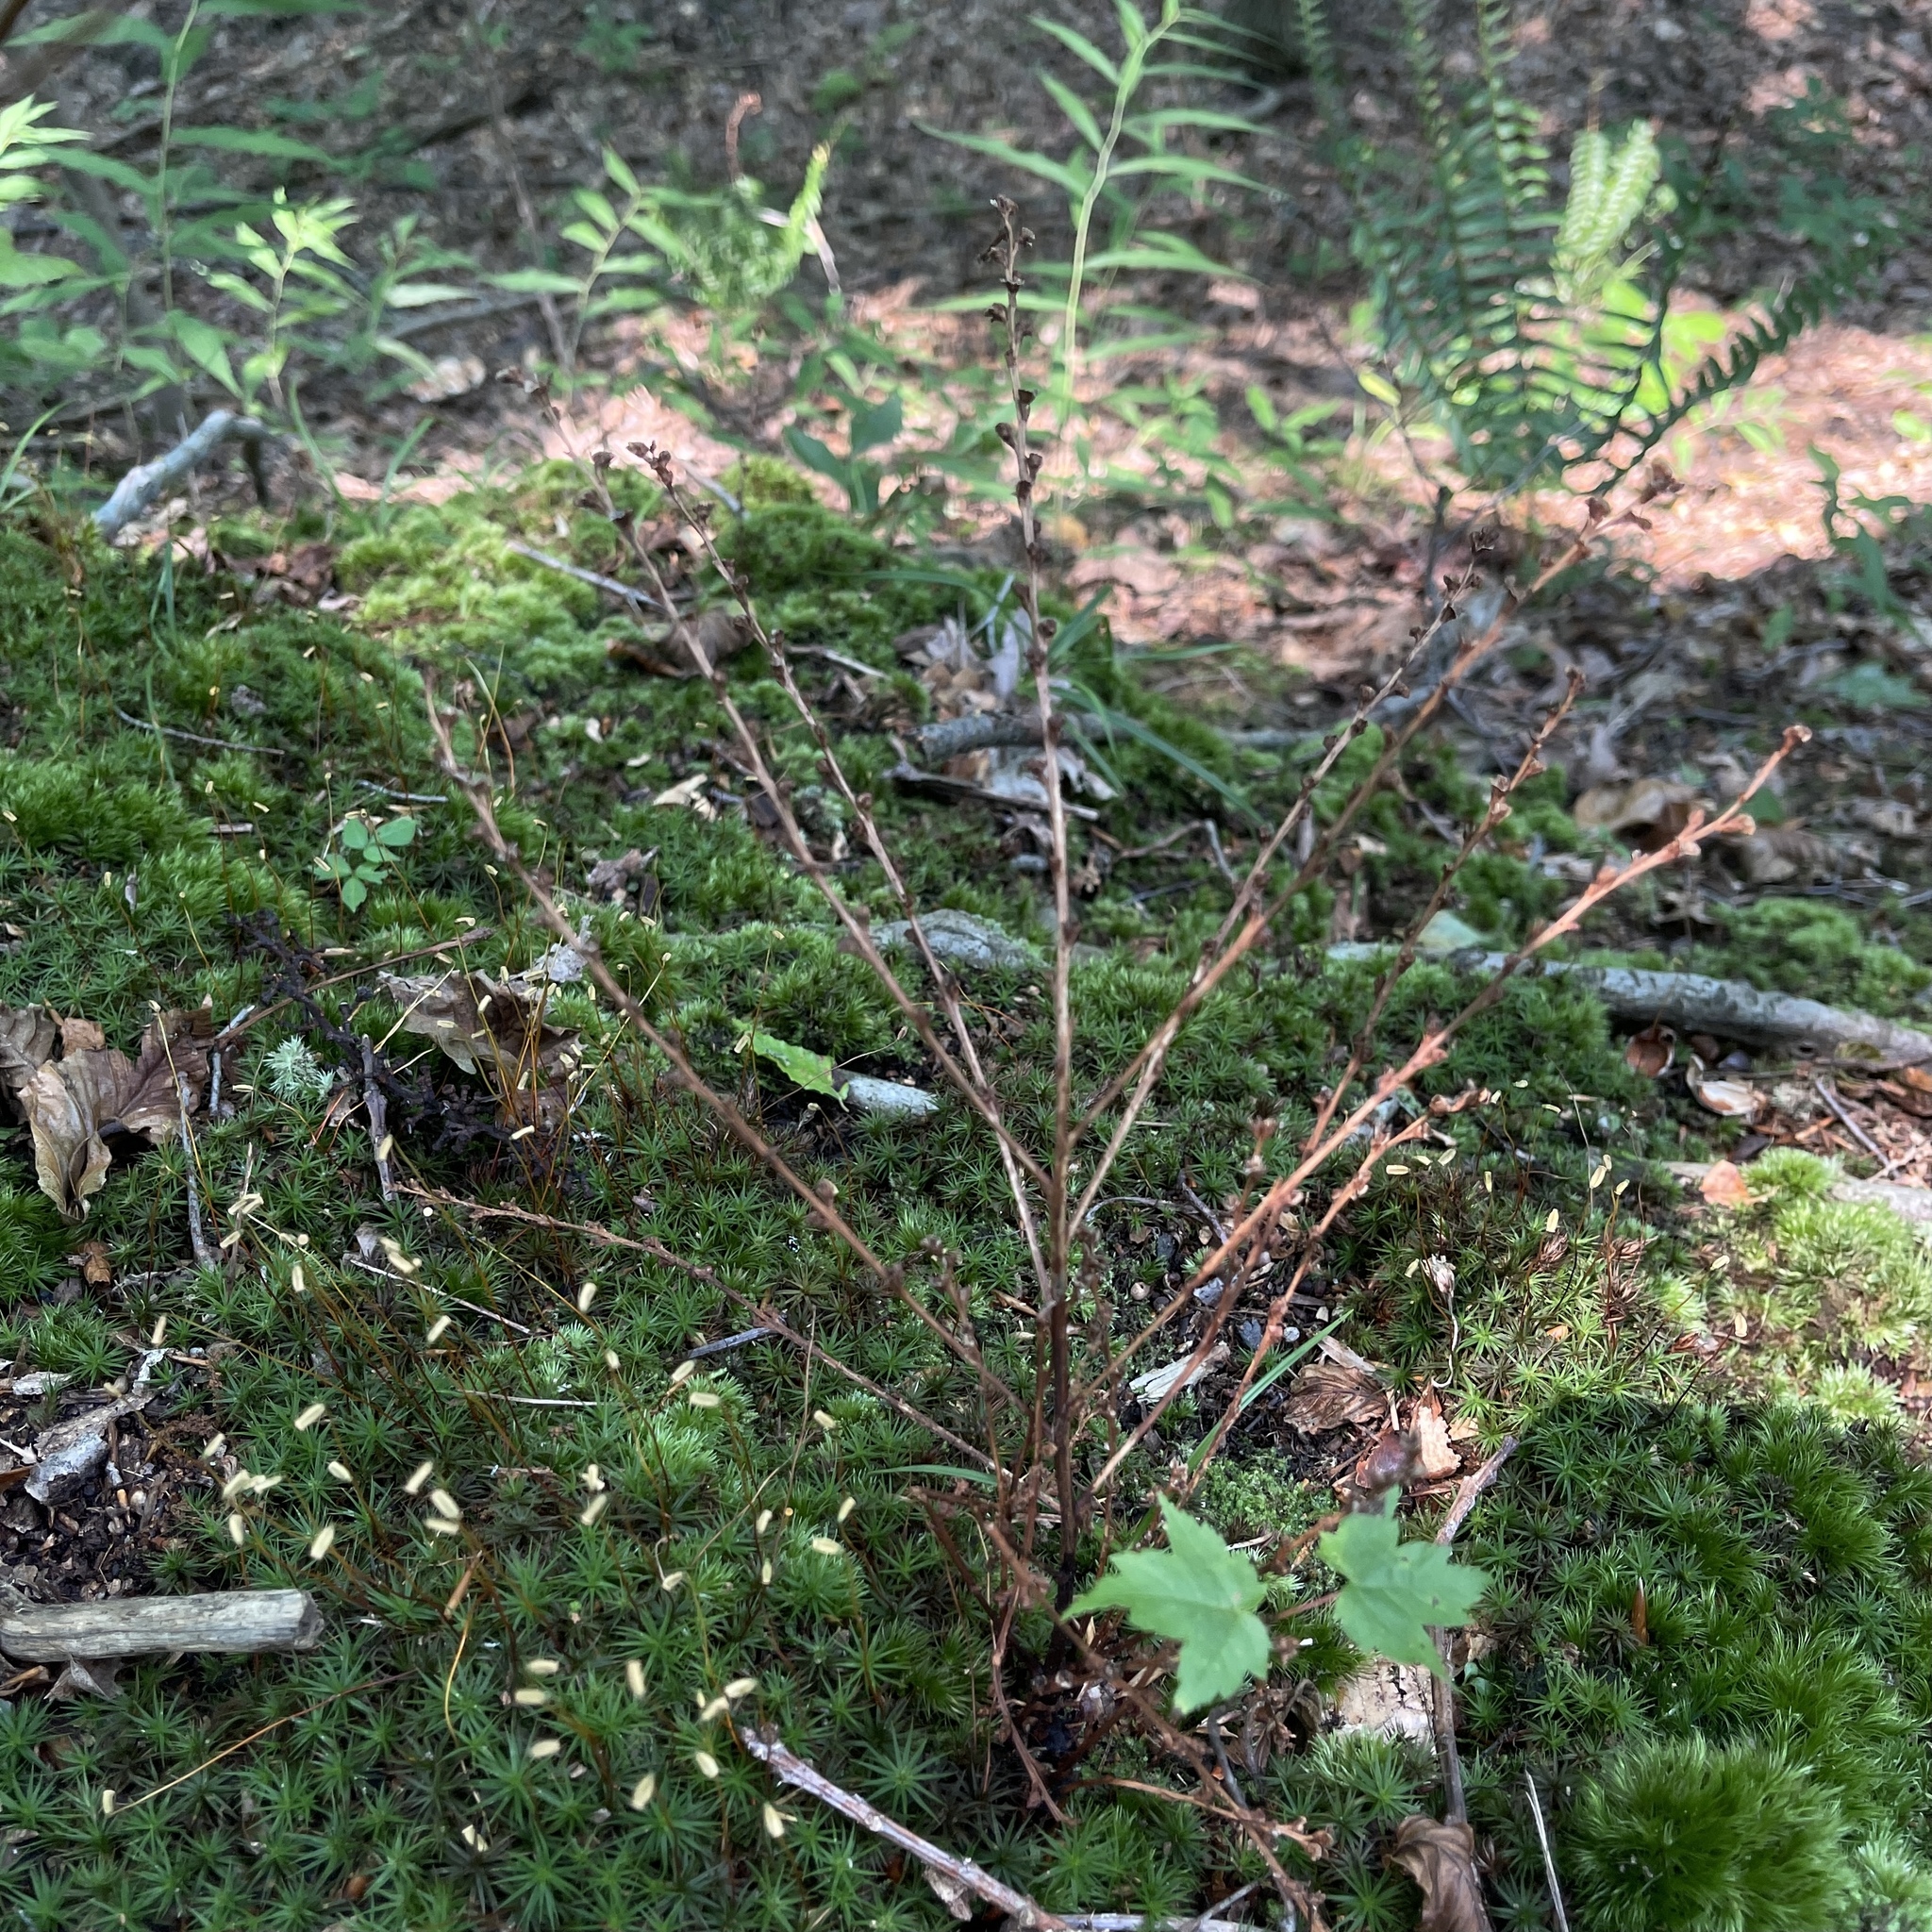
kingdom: Plantae
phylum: Tracheophyta
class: Magnoliopsida
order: Lamiales
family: Orobanchaceae
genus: Epifagus
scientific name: Epifagus virginiana
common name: Beechdrops
